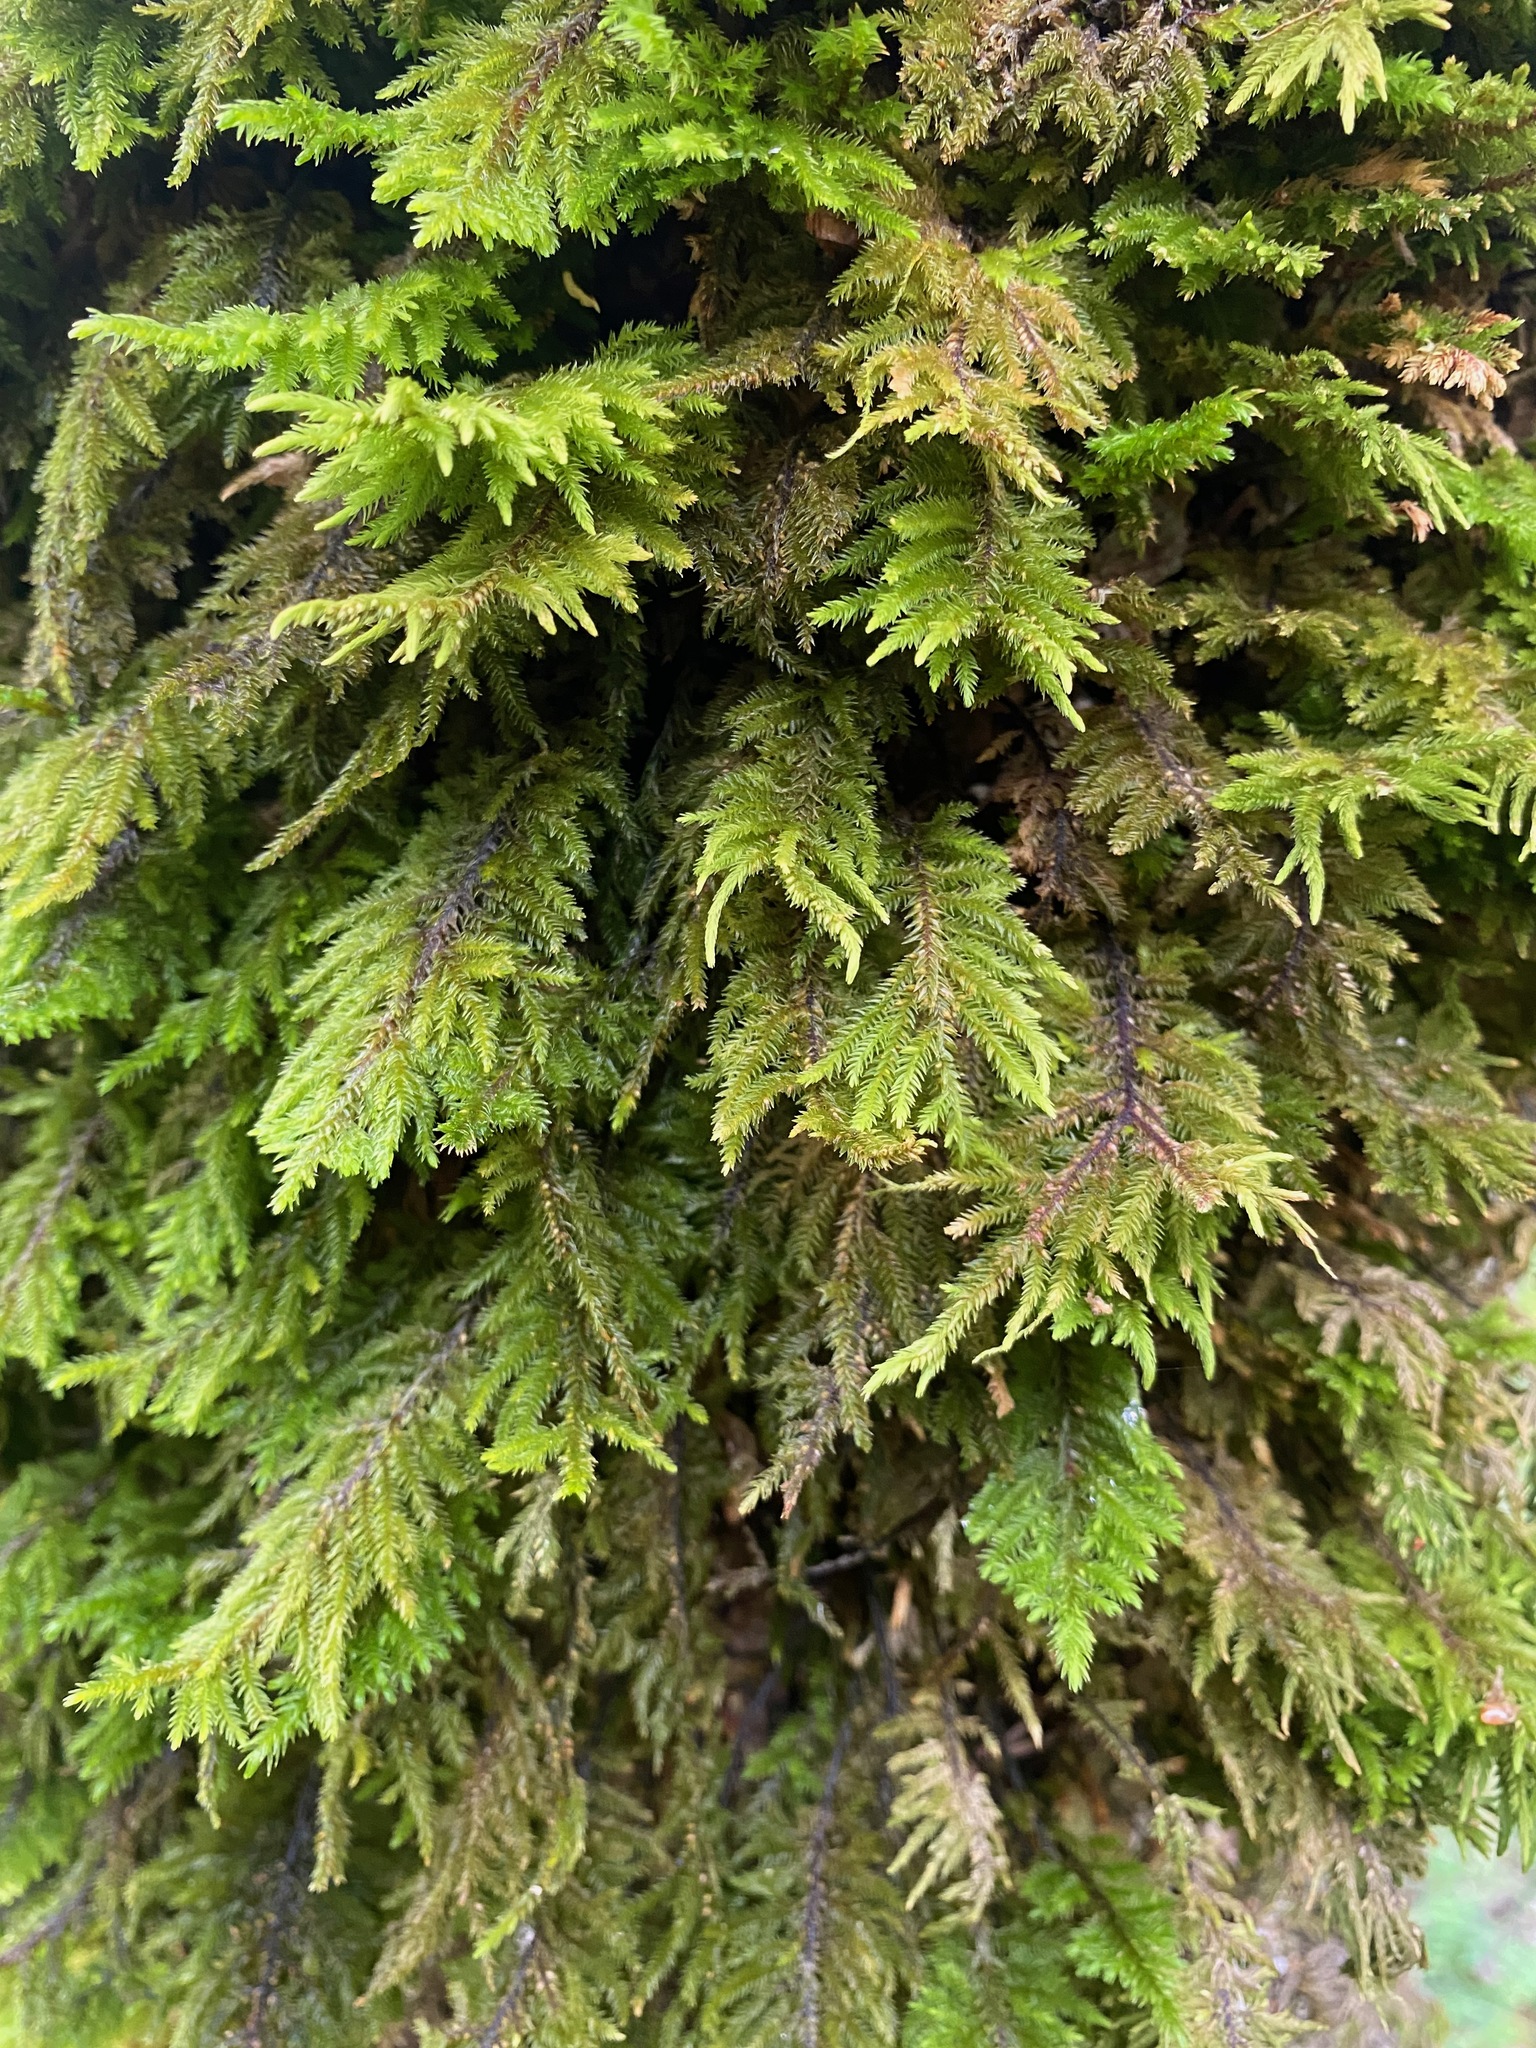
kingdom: Plantae
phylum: Bryophyta
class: Bryopsida
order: Hypnales
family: Cryphaeaceae
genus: Dendroalsia
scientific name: Dendroalsia abietina
